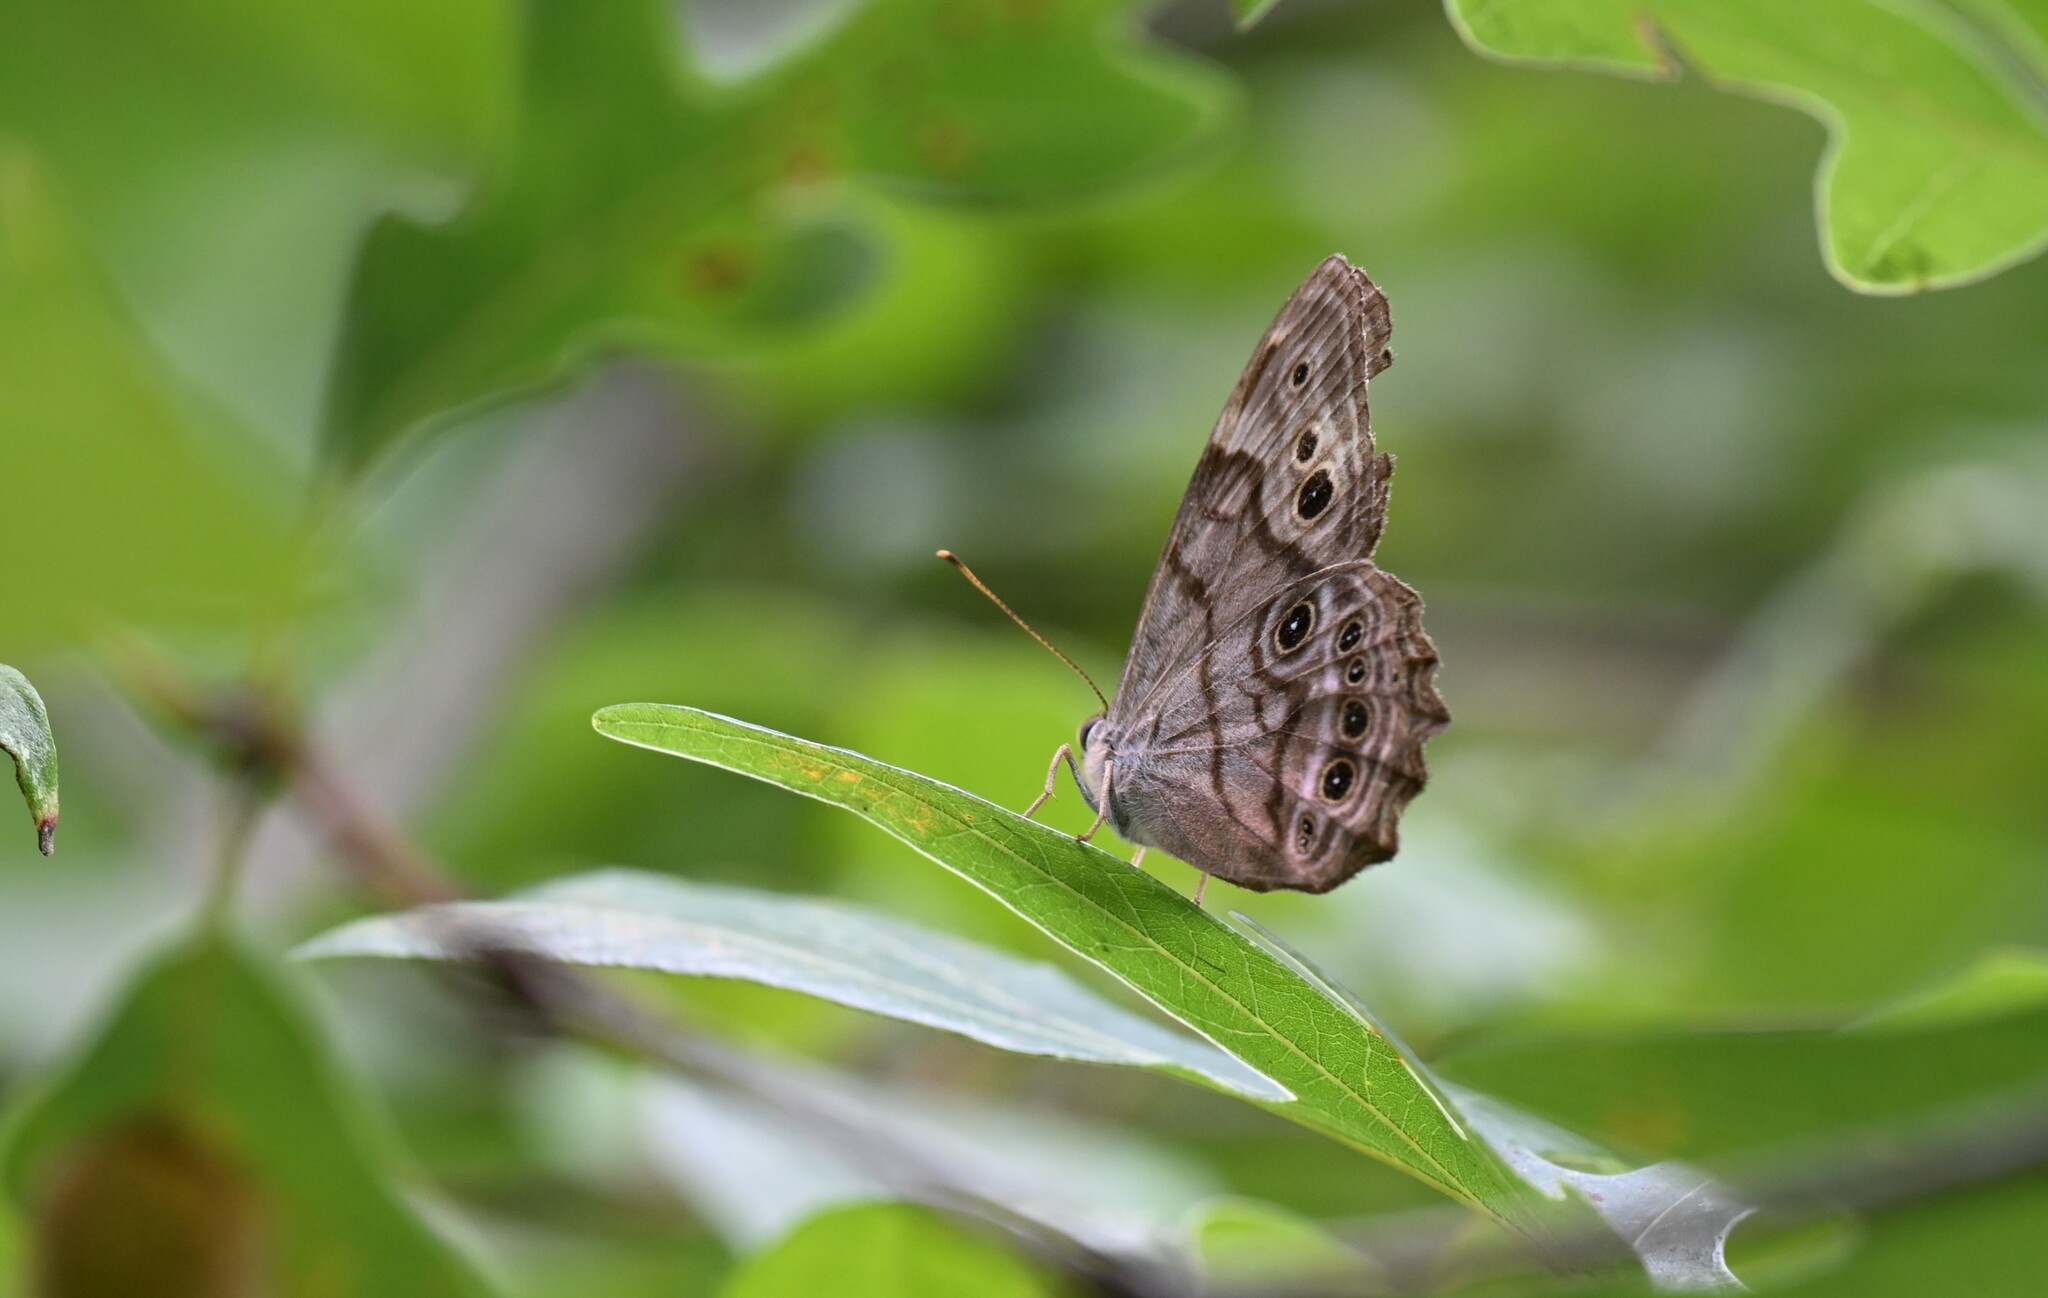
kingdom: Animalia
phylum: Arthropoda
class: Insecta
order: Lepidoptera
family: Nymphalidae
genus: Lethe
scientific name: Lethe anthedon
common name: Northern pearly-eye
